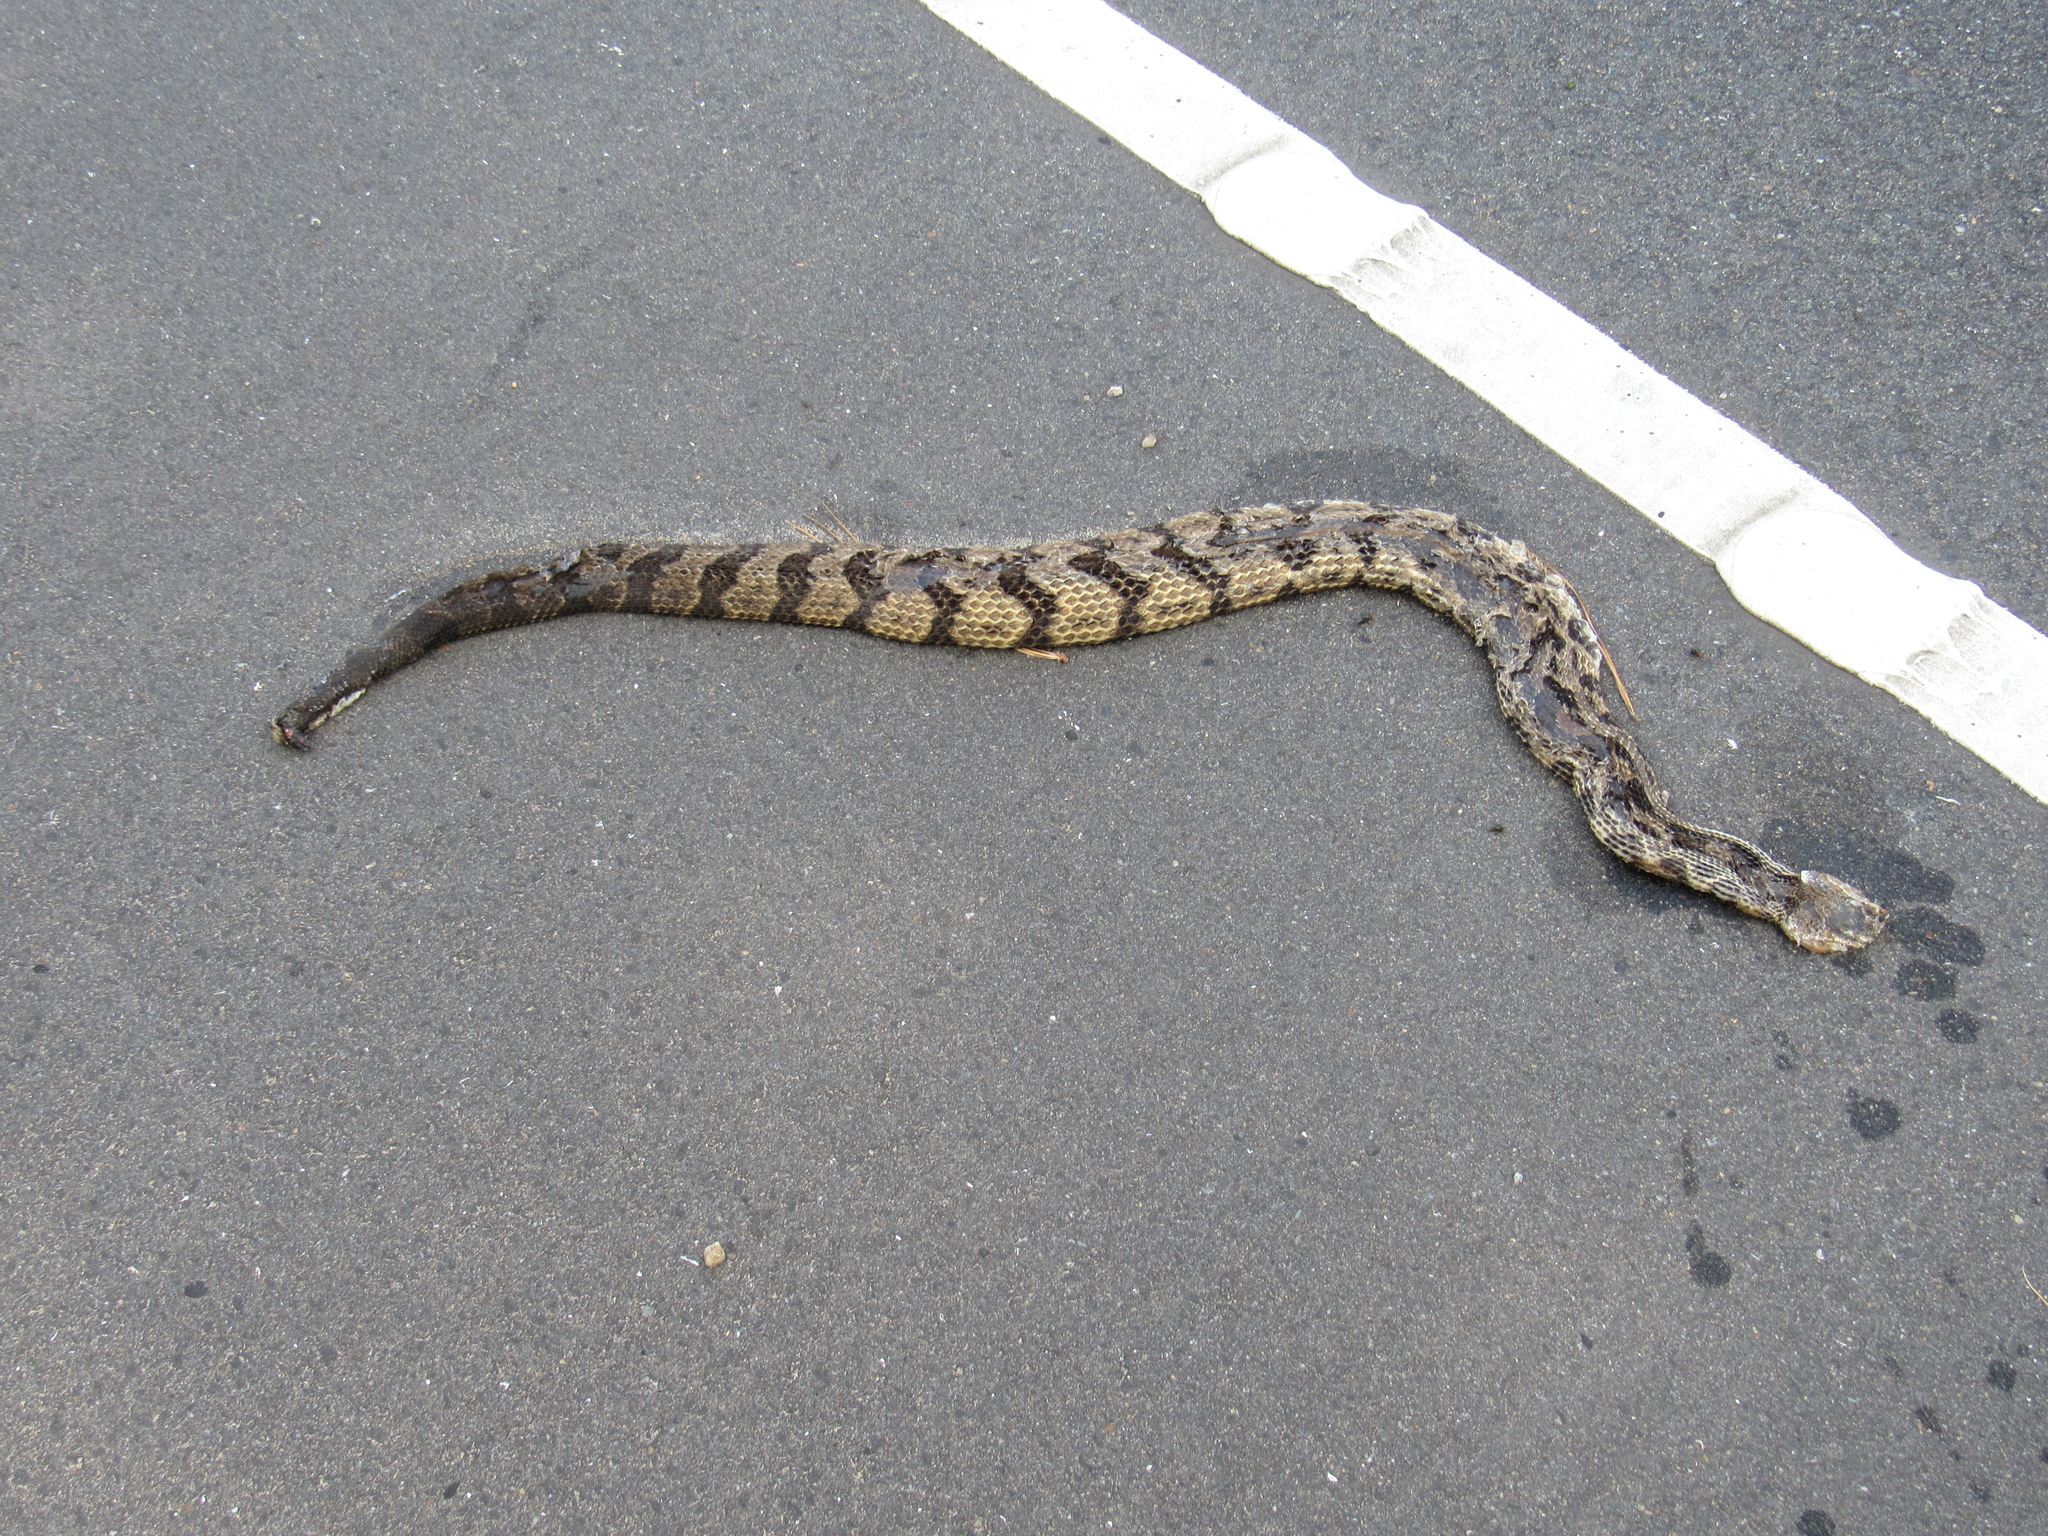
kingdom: Animalia
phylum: Chordata
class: Squamata
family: Viperidae
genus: Crotalus
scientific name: Crotalus horridus
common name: Timber rattlesnake
